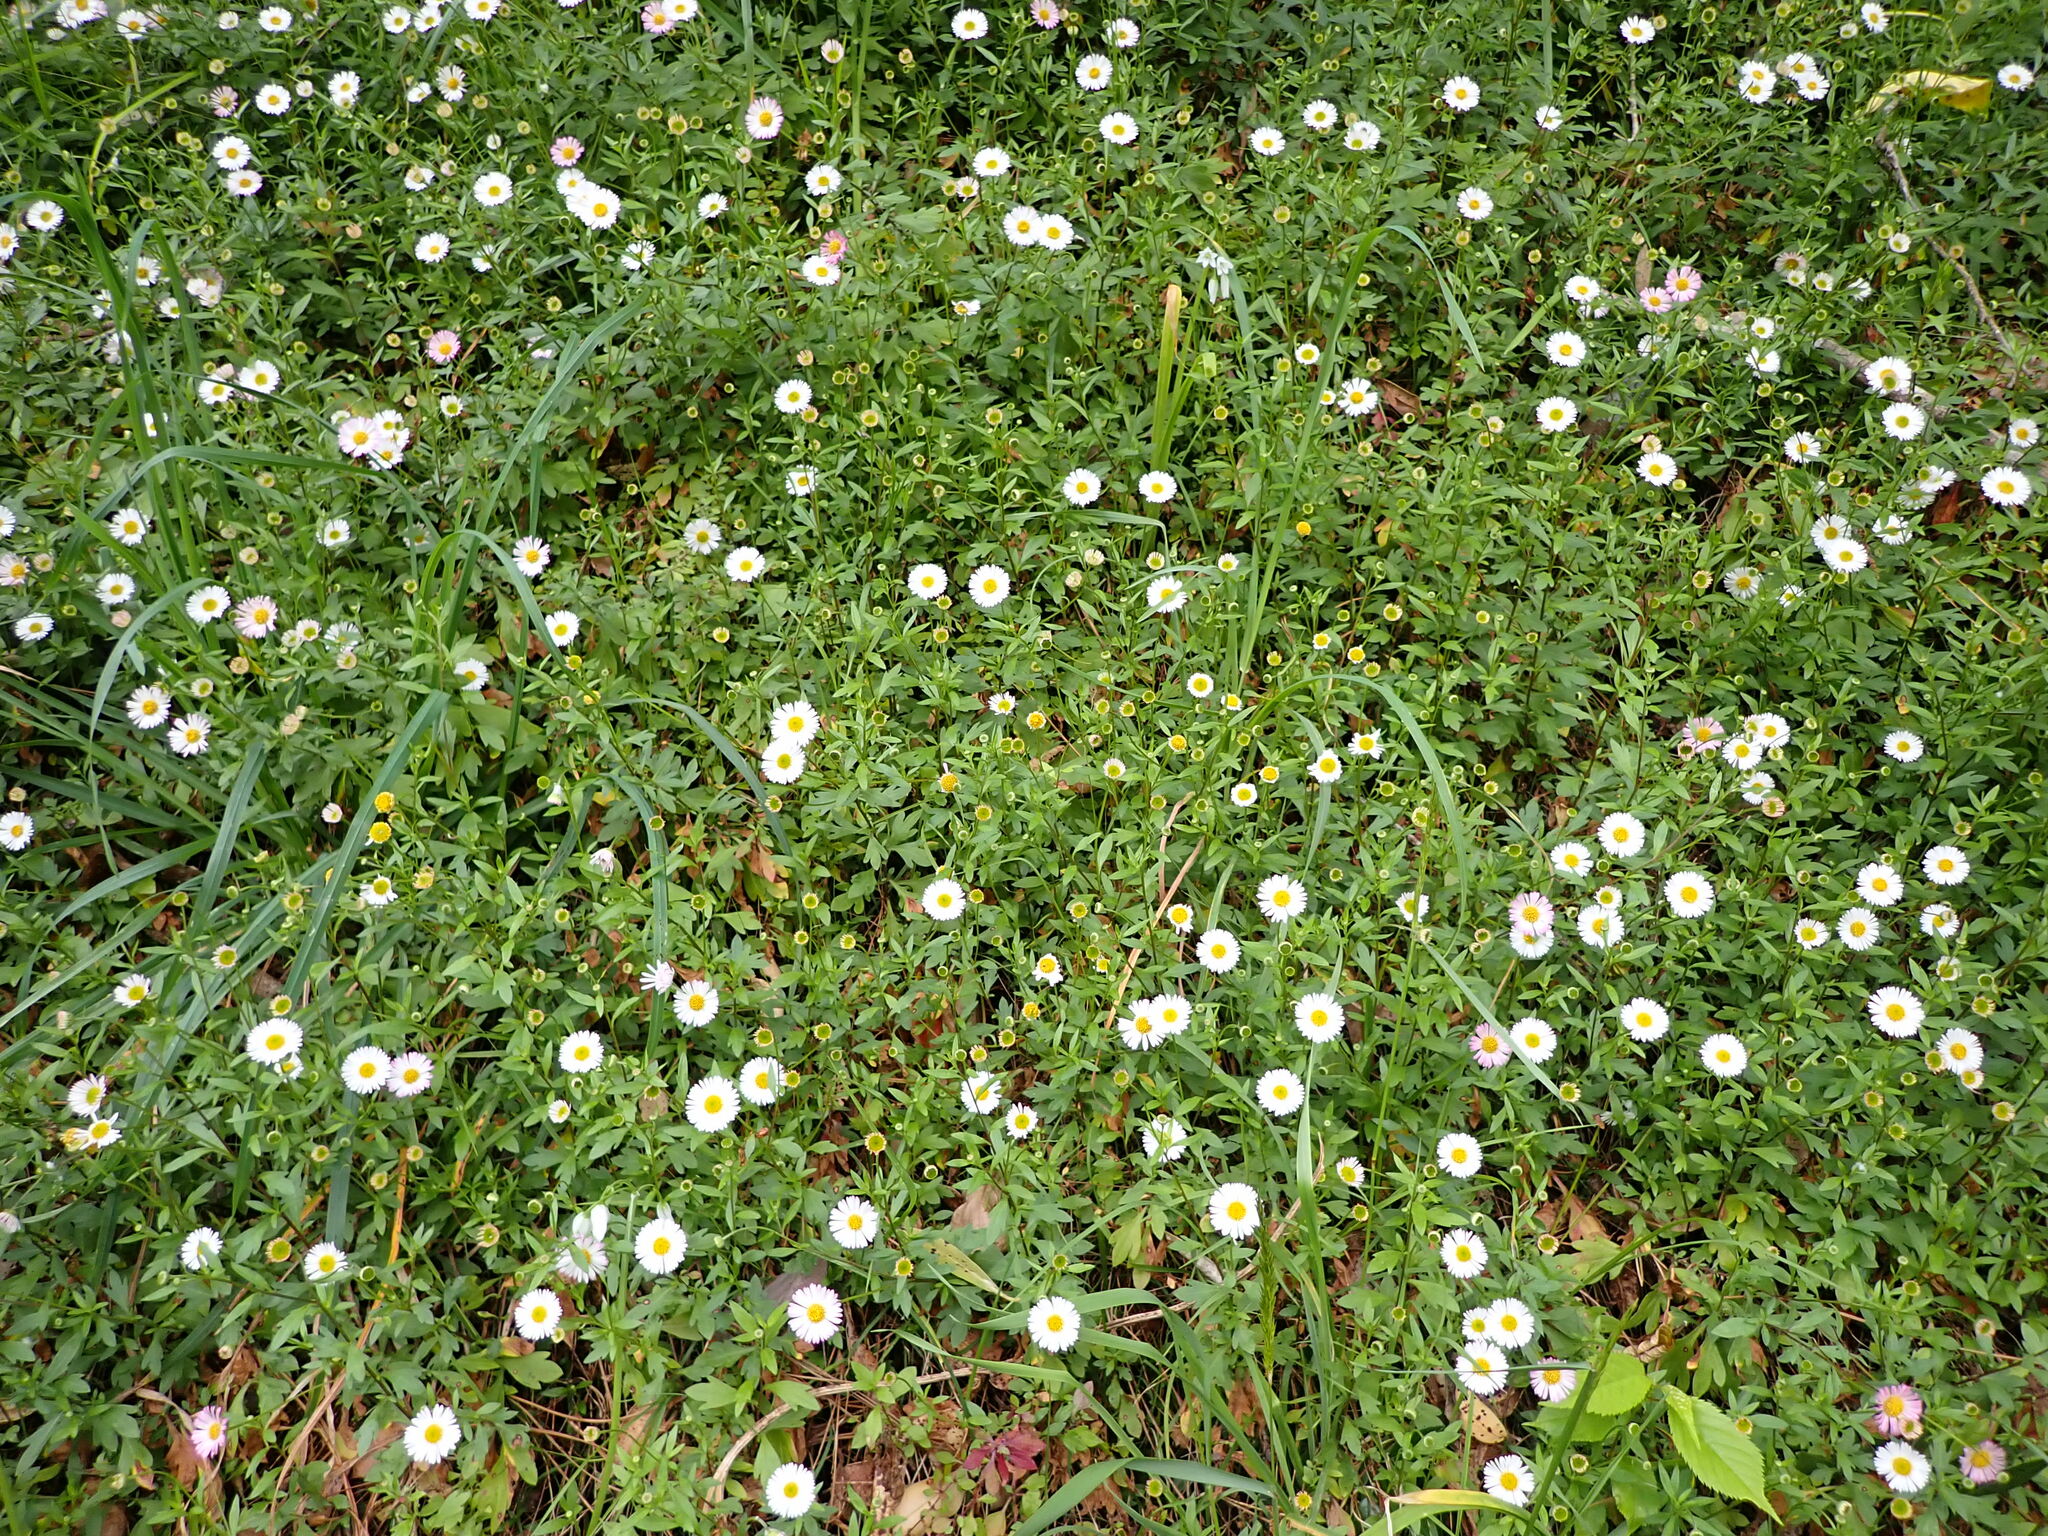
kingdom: Plantae
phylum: Tracheophyta
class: Magnoliopsida
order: Asterales
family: Asteraceae
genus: Erigeron
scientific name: Erigeron karvinskianus
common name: Mexican fleabane
